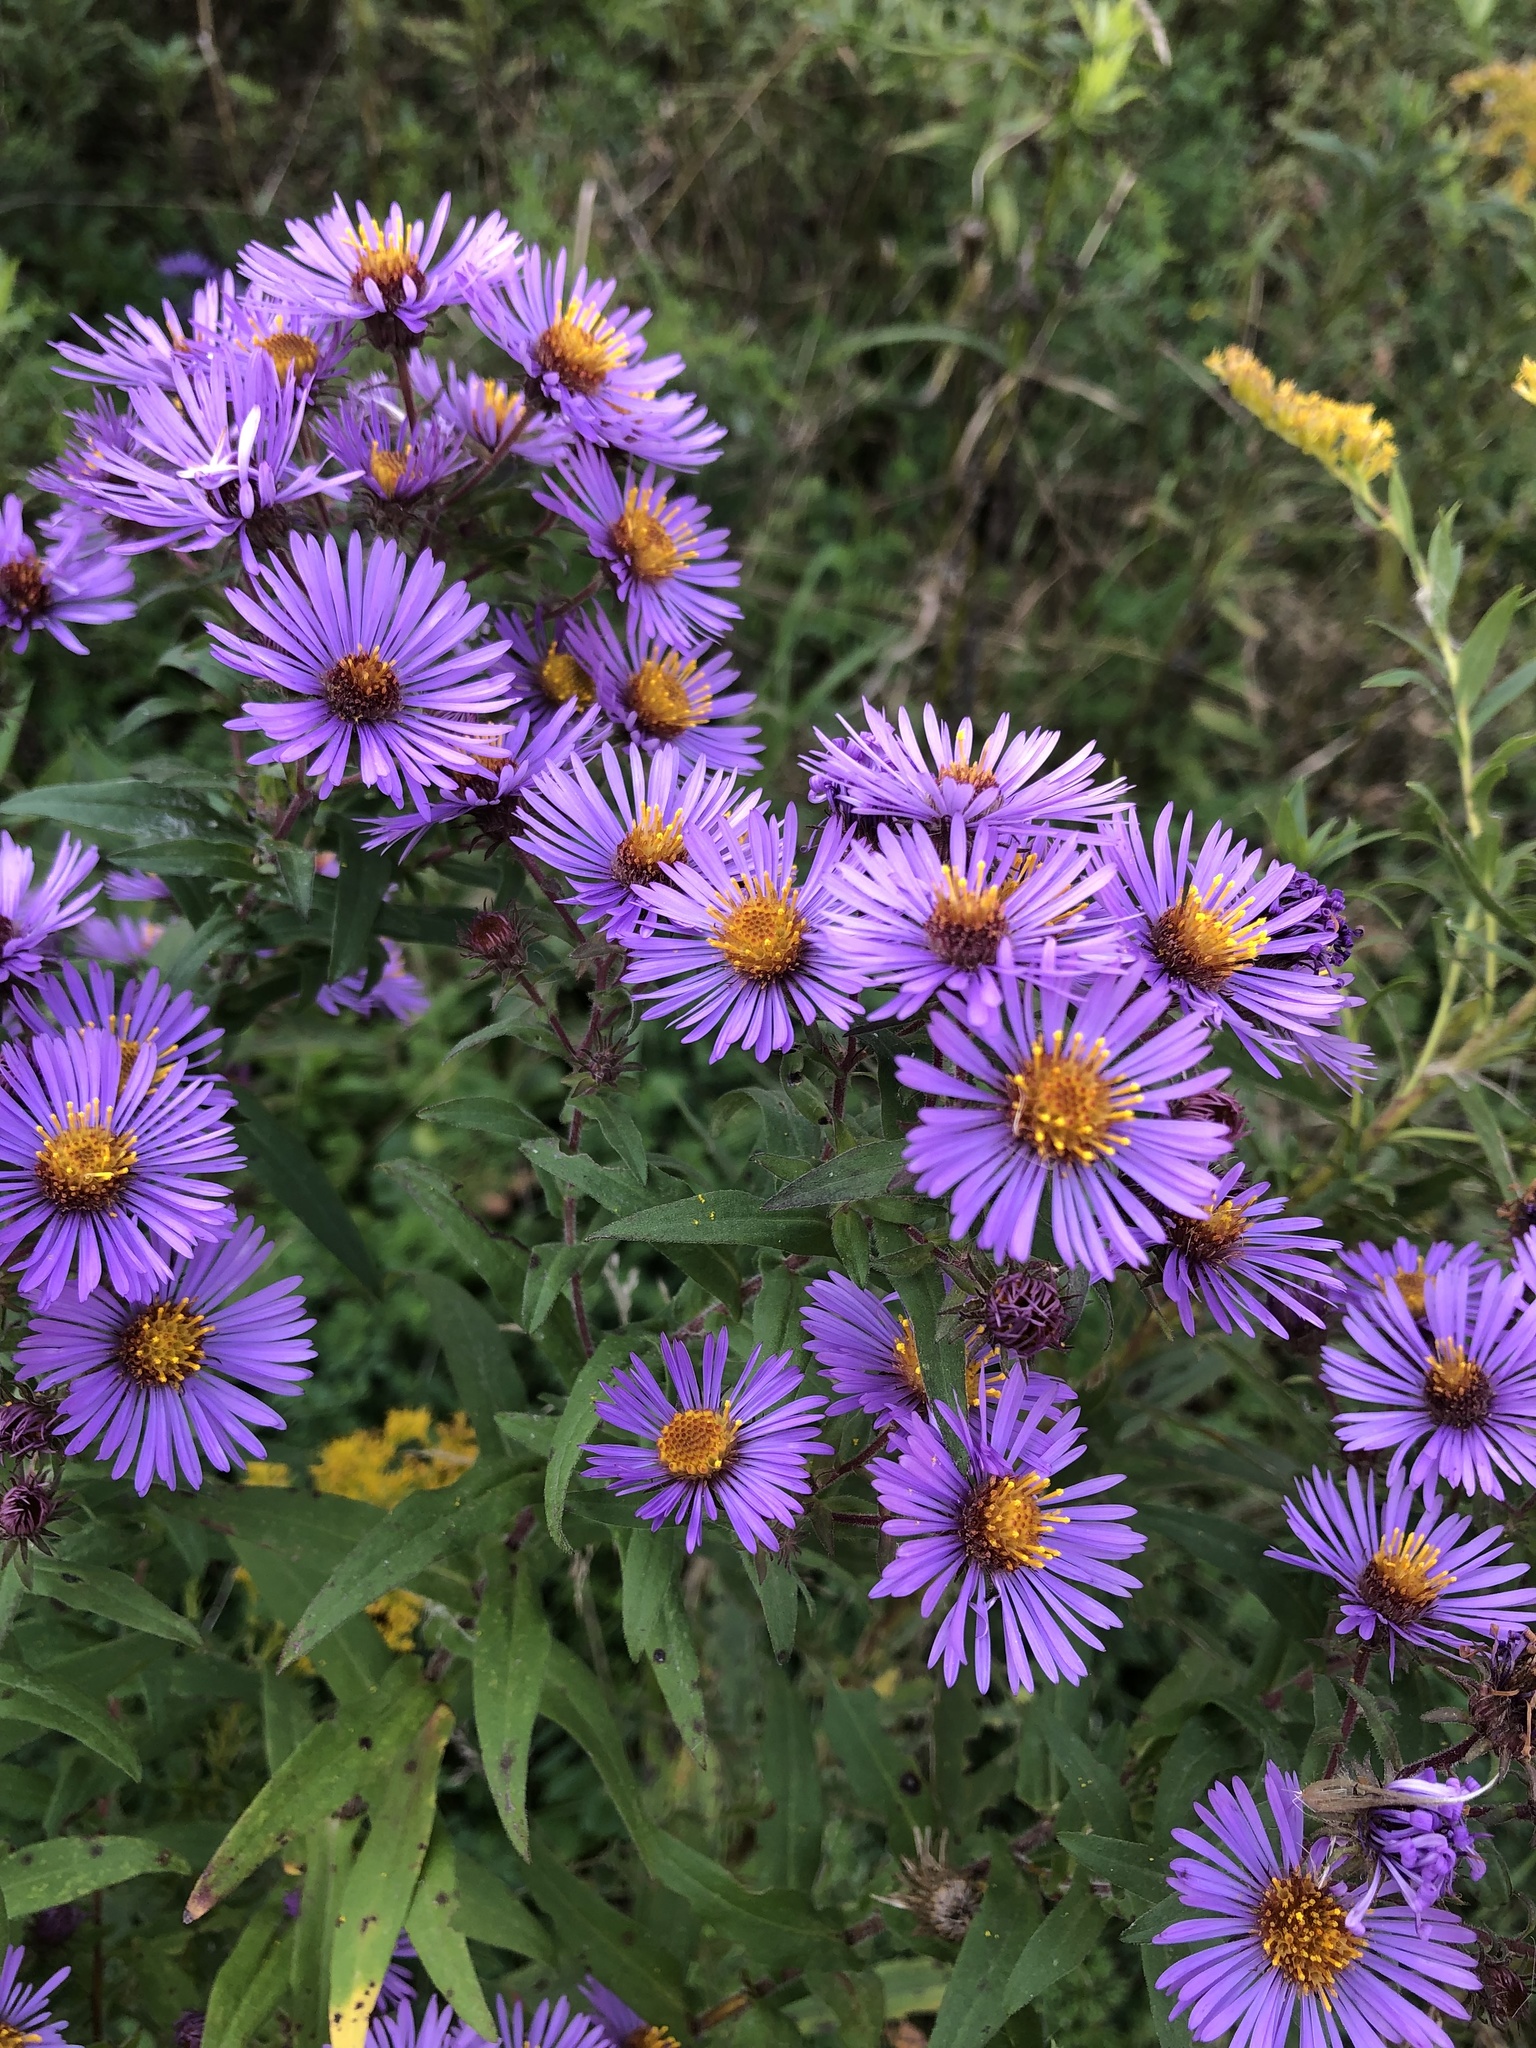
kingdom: Plantae
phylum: Tracheophyta
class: Magnoliopsida
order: Asterales
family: Asteraceae
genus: Symphyotrichum
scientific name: Symphyotrichum novae-angliae
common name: Michaelmas daisy
